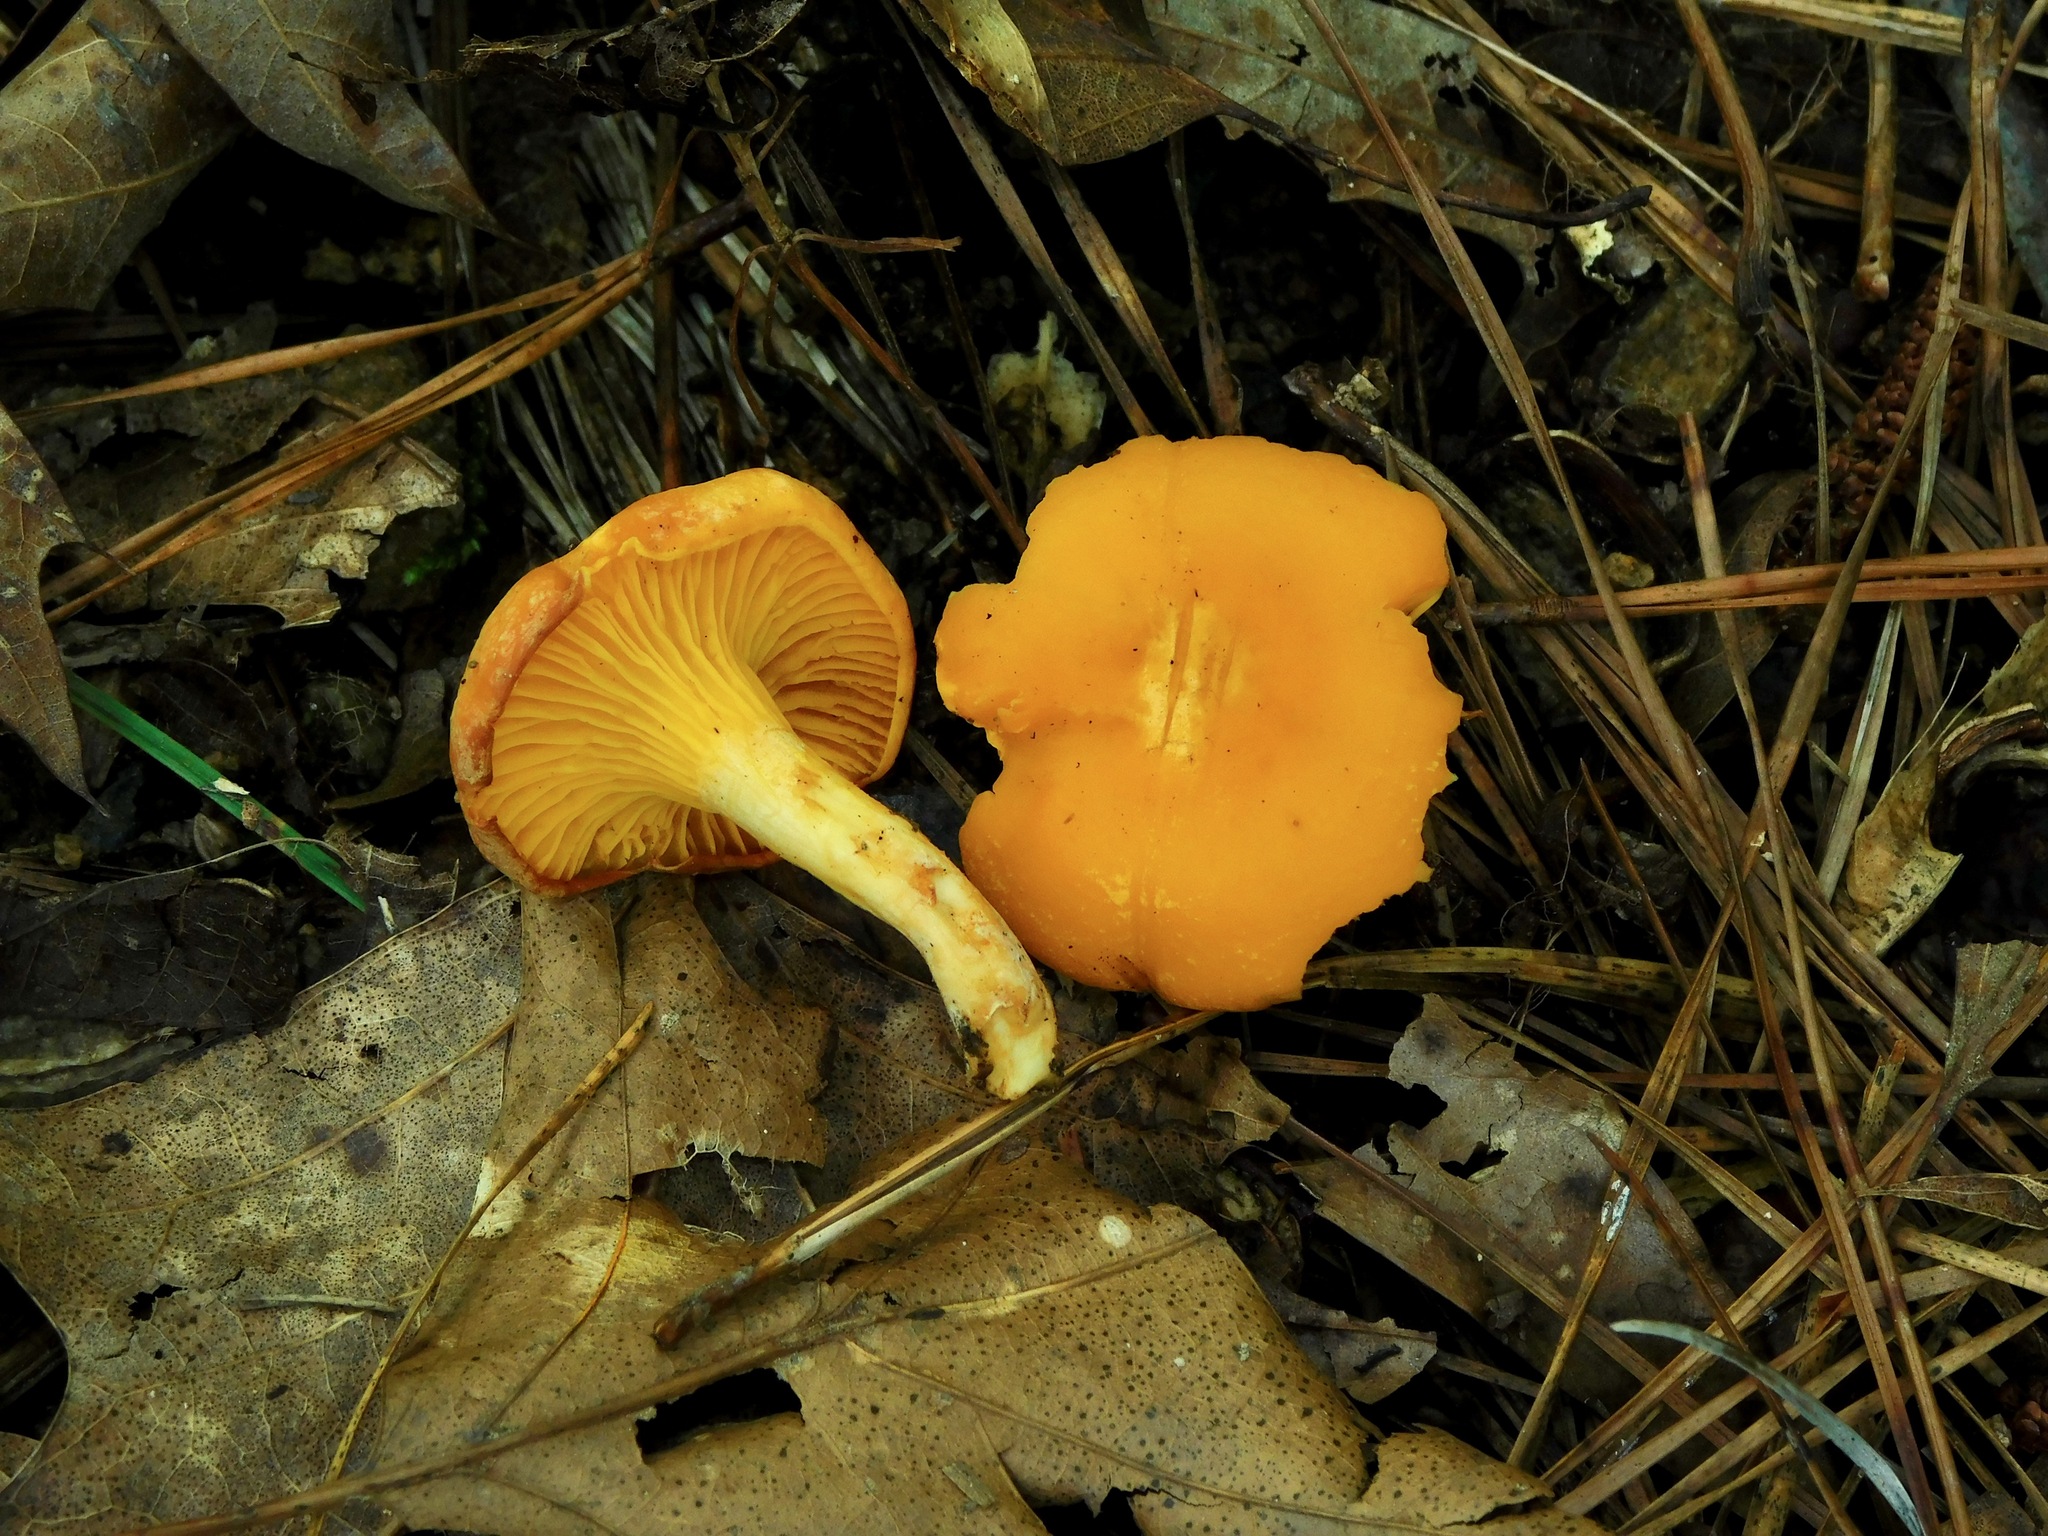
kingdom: Fungi
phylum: Basidiomycota
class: Agaricomycetes
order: Cantharellales
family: Hydnaceae
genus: Cantharellus
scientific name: Cantharellus lateritius
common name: Smooth chanterelle
